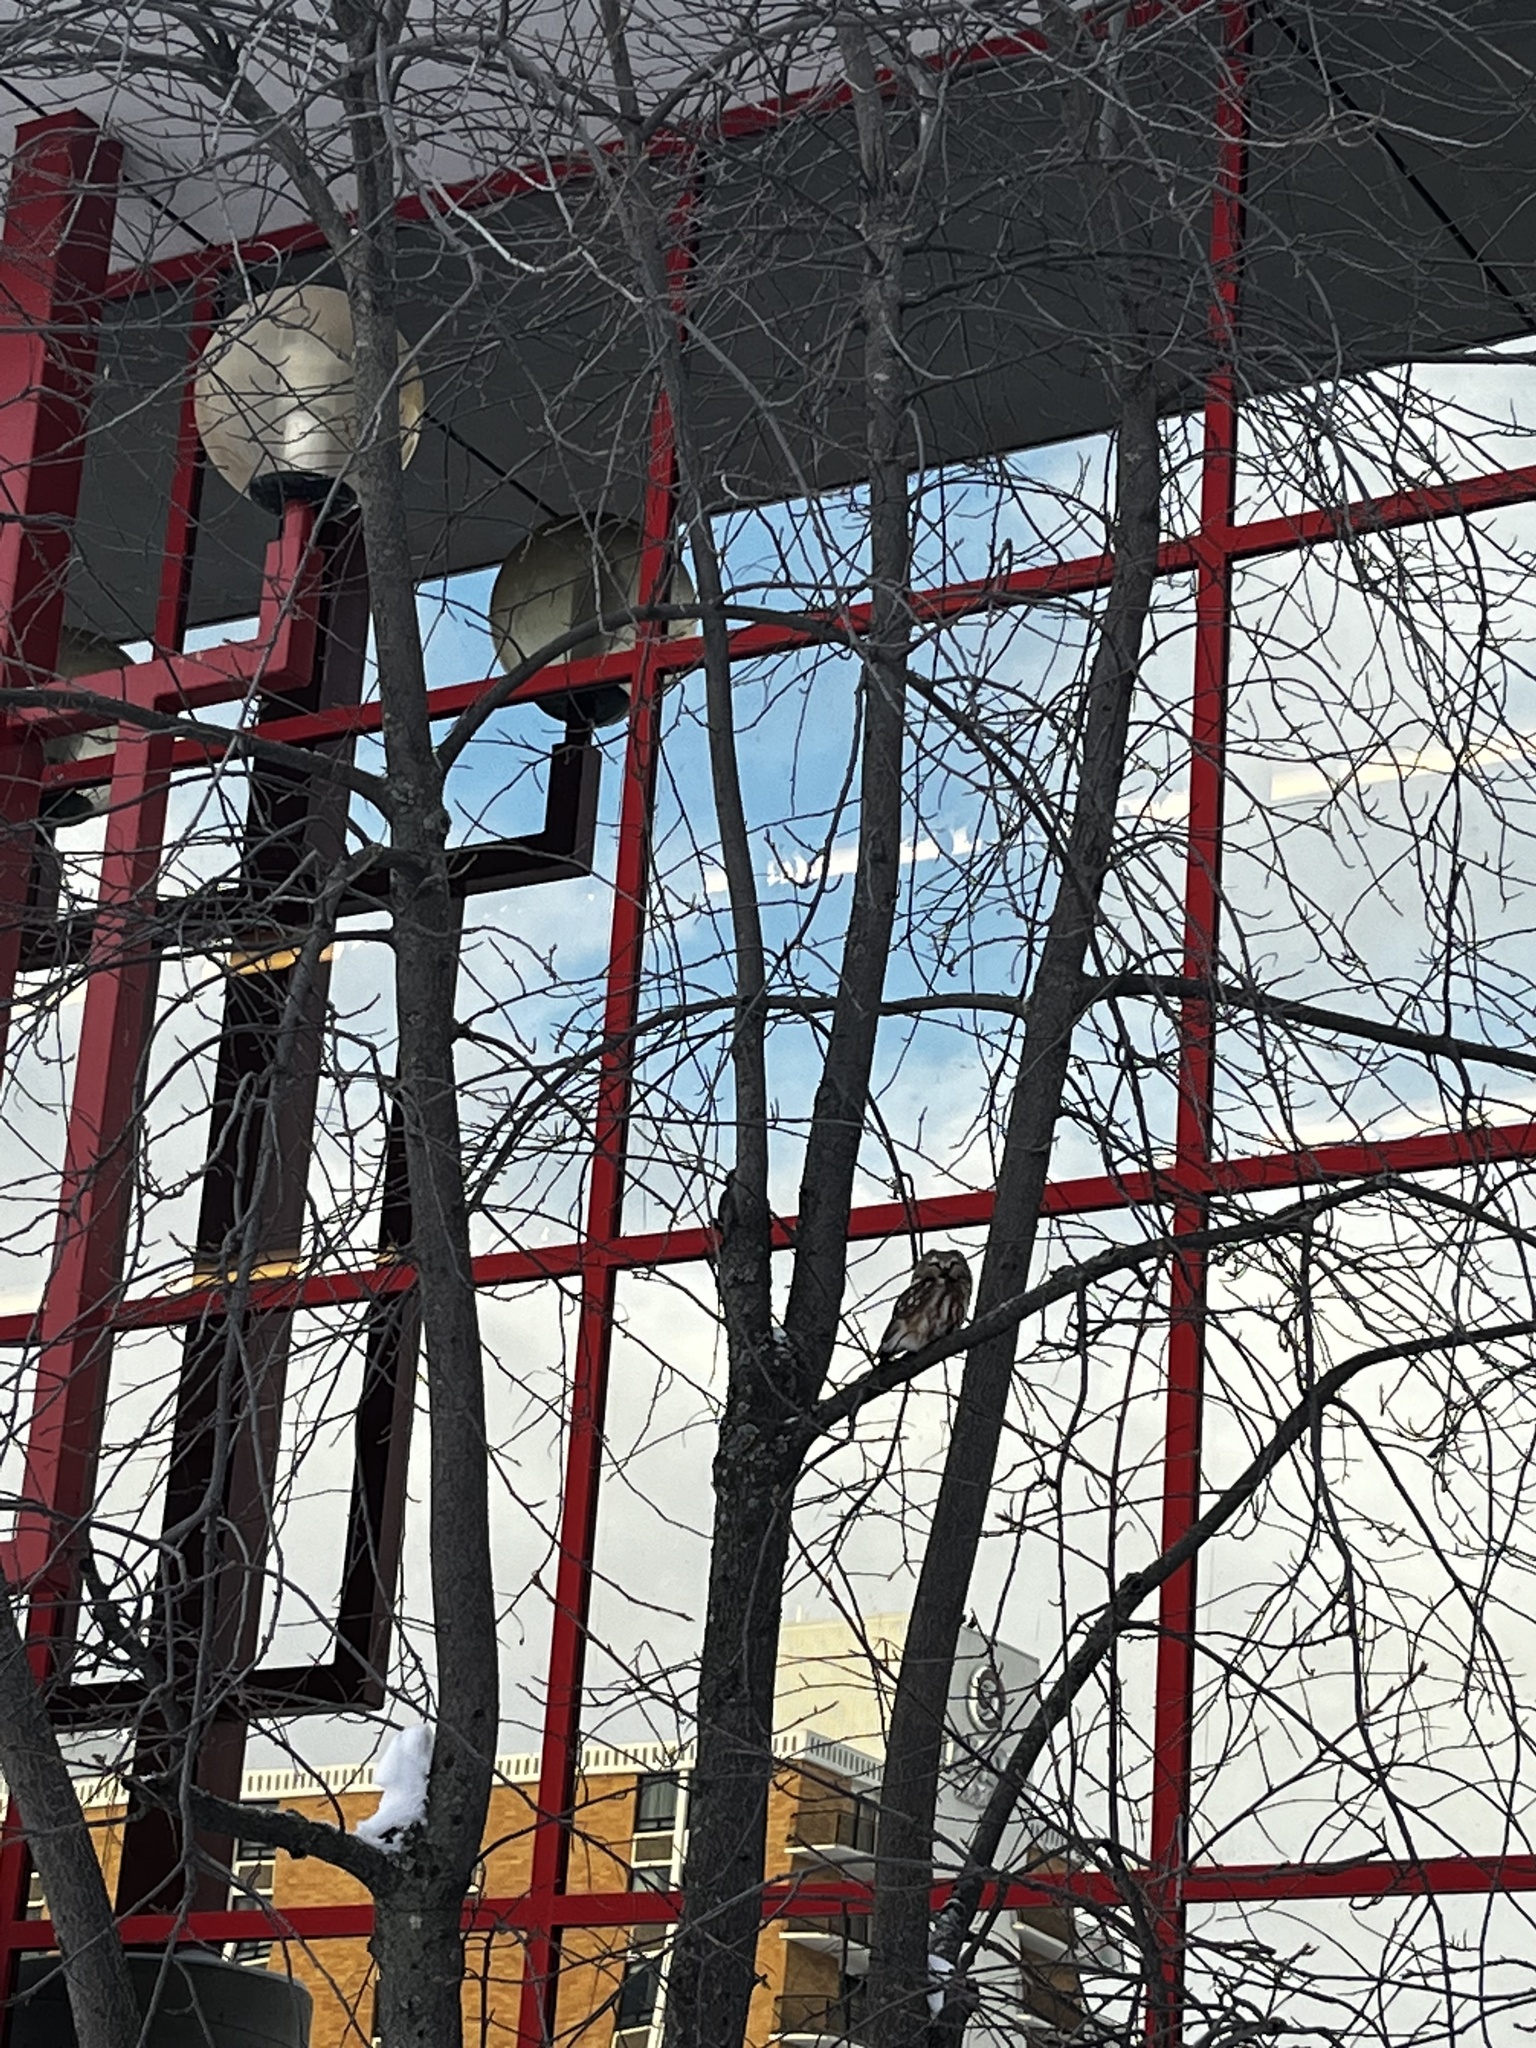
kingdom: Animalia
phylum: Chordata
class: Aves
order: Strigiformes
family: Strigidae
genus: Aegolius
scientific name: Aegolius acadicus
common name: Northern saw-whet owl
